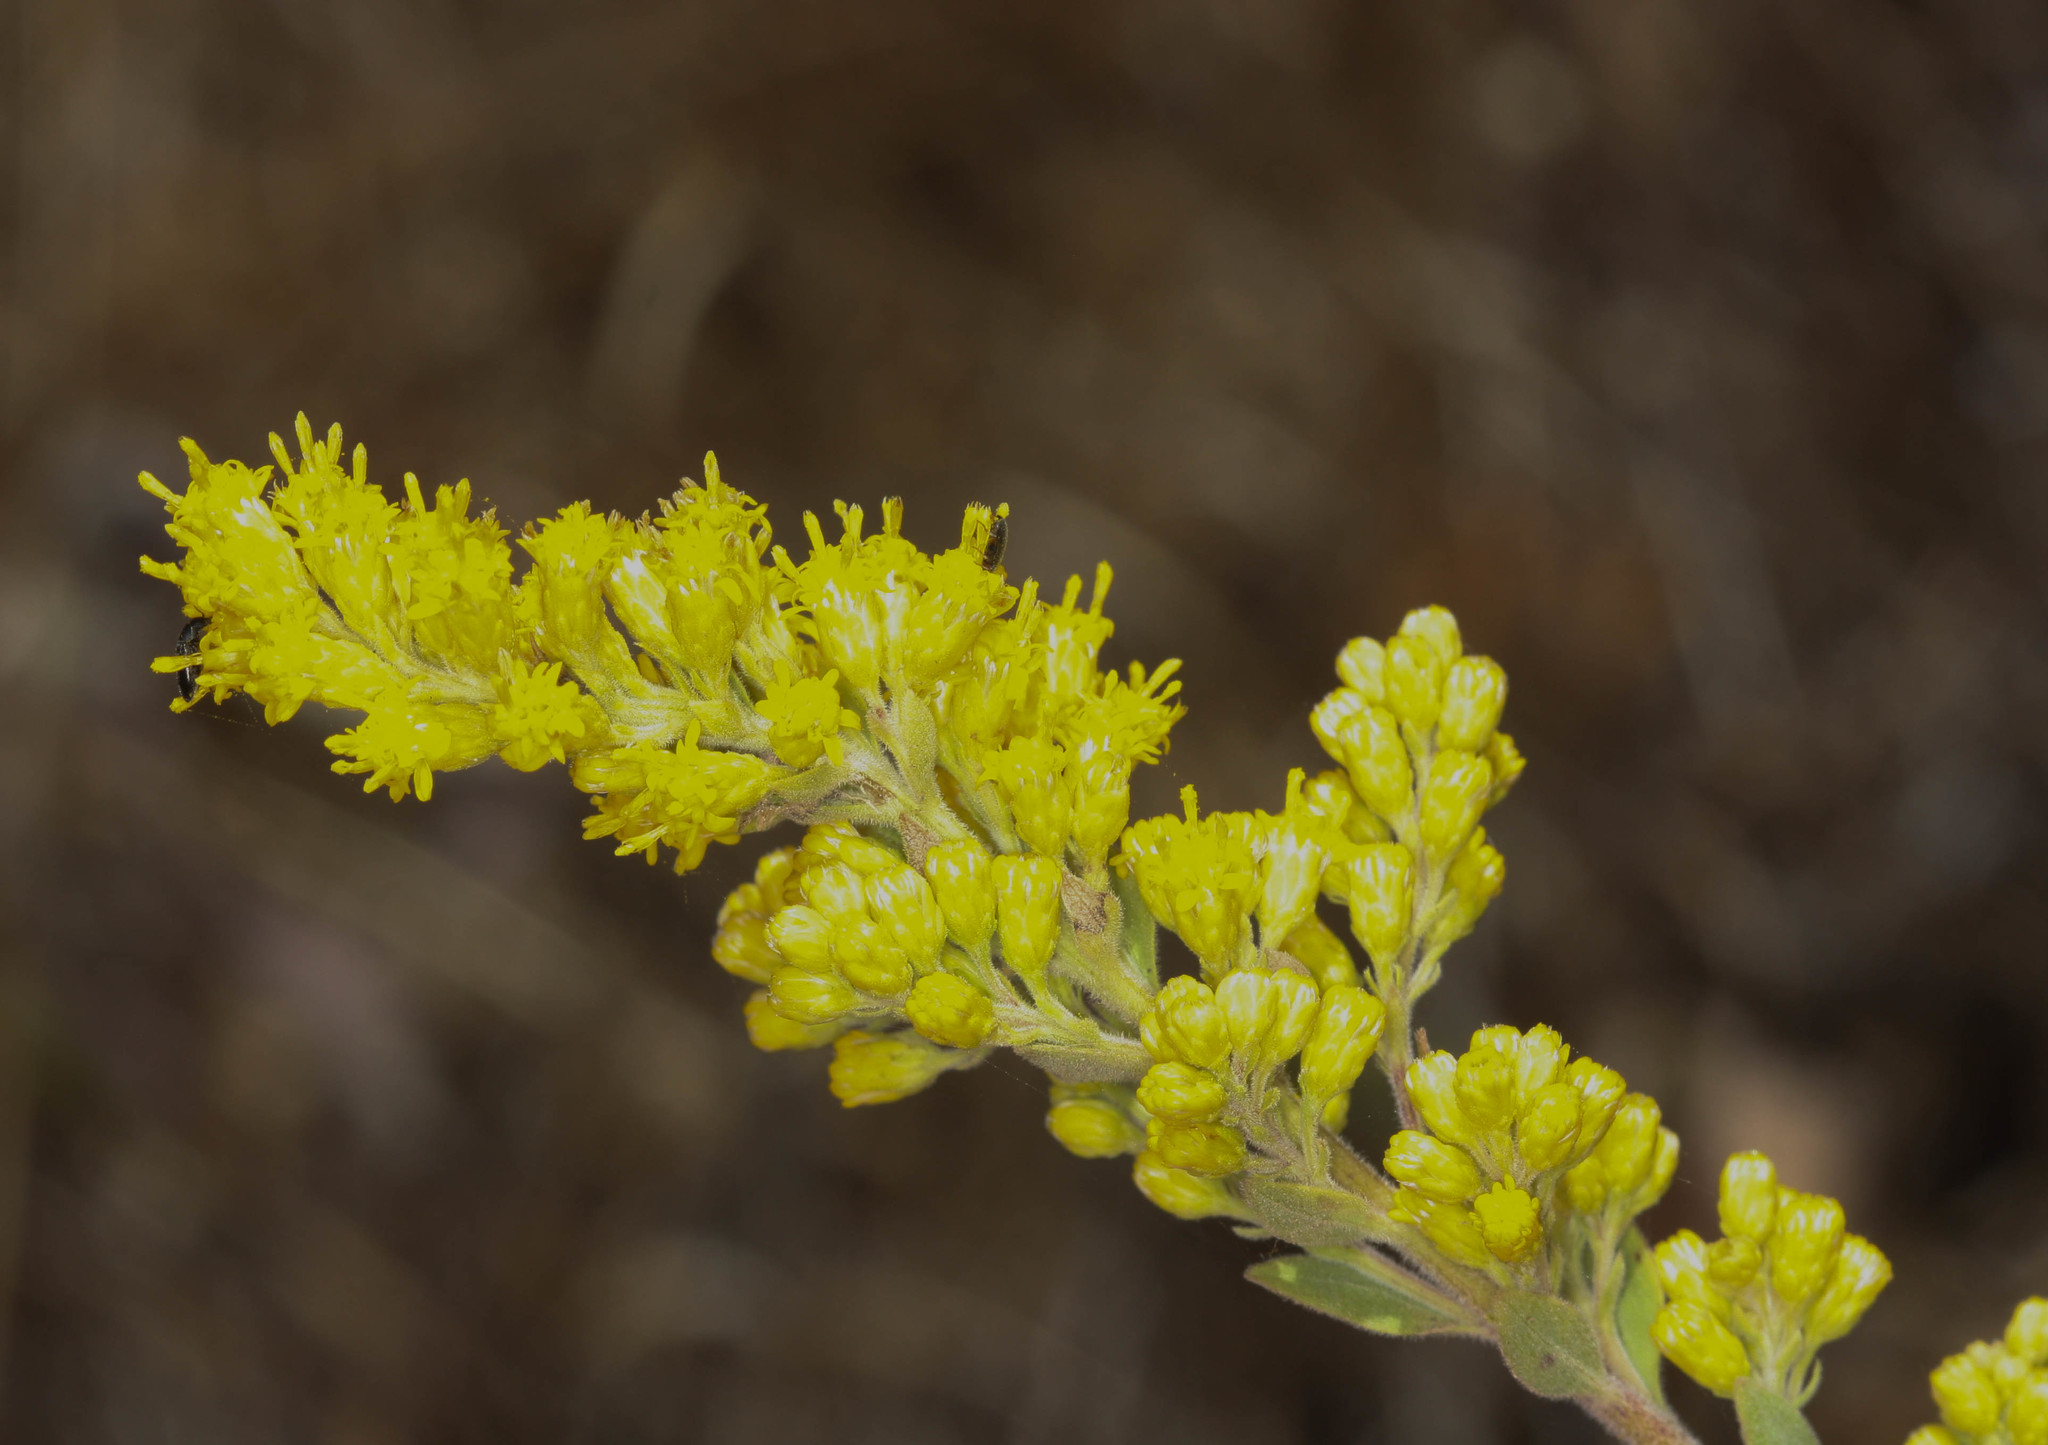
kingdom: Plantae
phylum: Tracheophyta
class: Magnoliopsida
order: Asterales
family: Asteraceae
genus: Solidago
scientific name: Solidago californica
